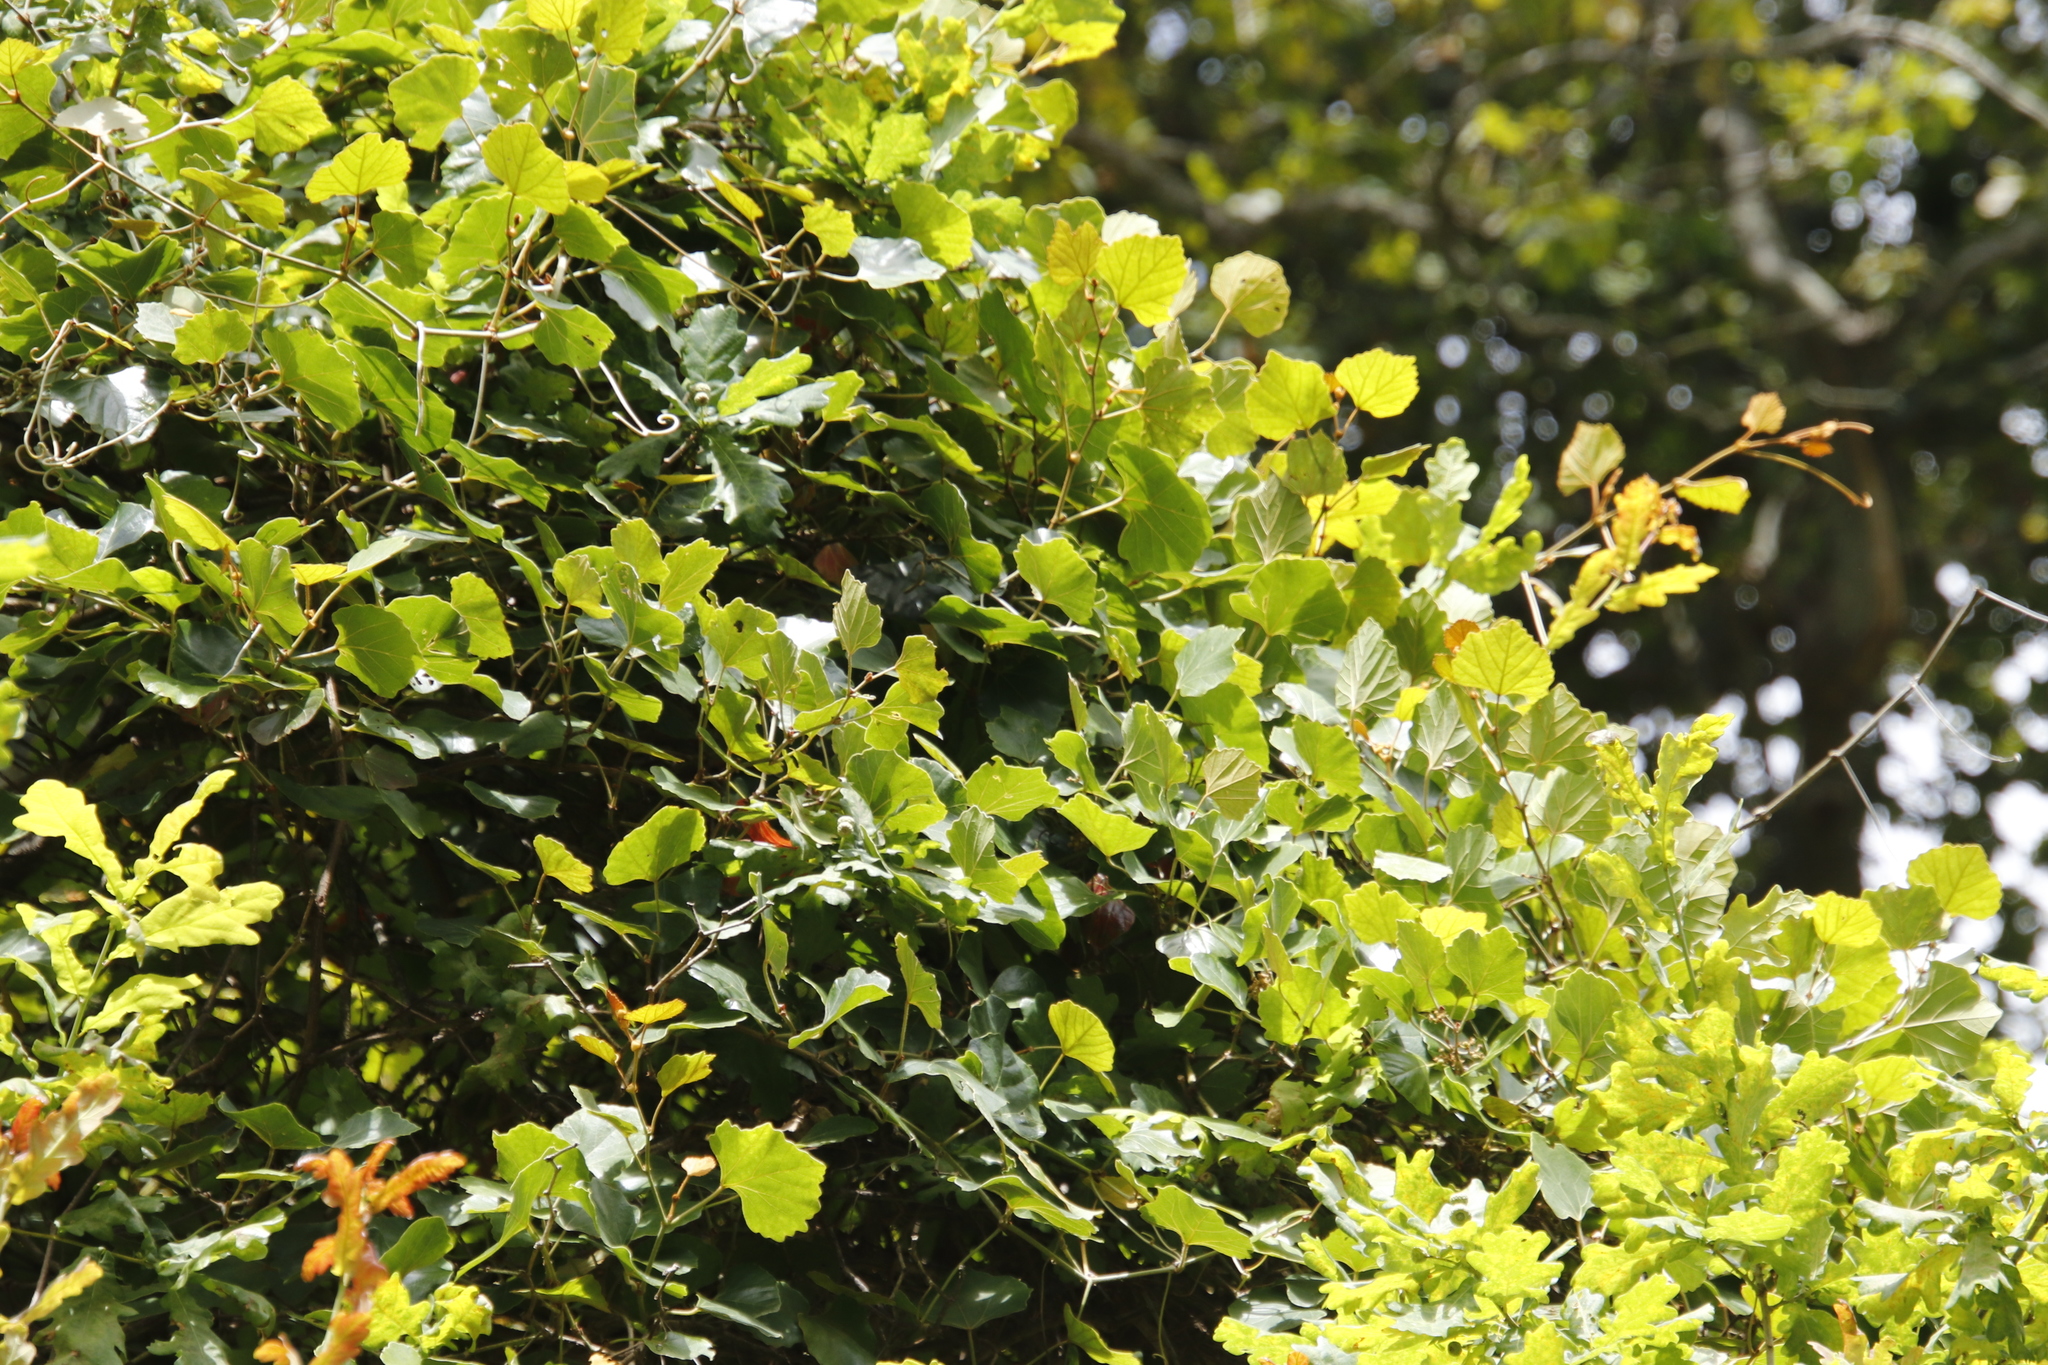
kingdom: Plantae
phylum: Tracheophyta
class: Magnoliopsida
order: Vitales
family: Vitaceae
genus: Rhoicissus
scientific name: Rhoicissus tomentosa
